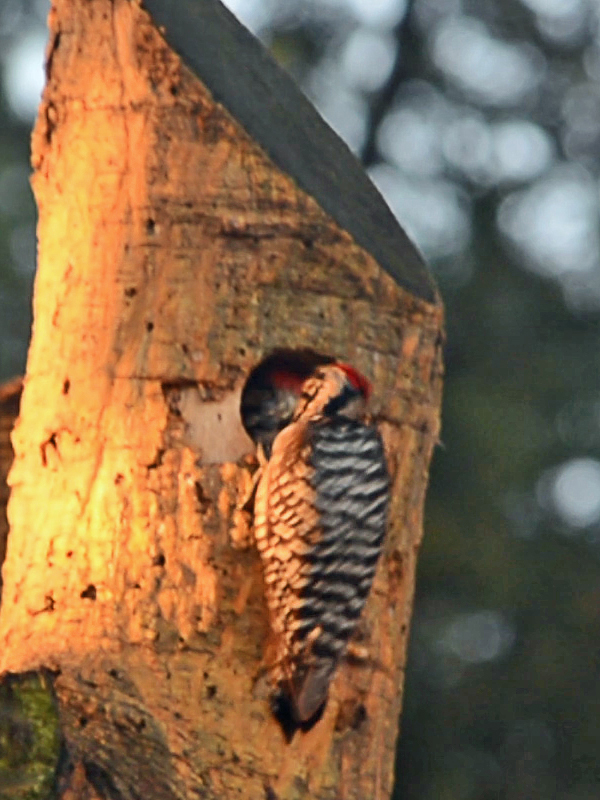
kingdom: Animalia
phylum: Chordata
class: Aves
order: Piciformes
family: Picidae
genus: Dryobates
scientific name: Dryobates scalaris
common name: Ladder-backed woodpecker
